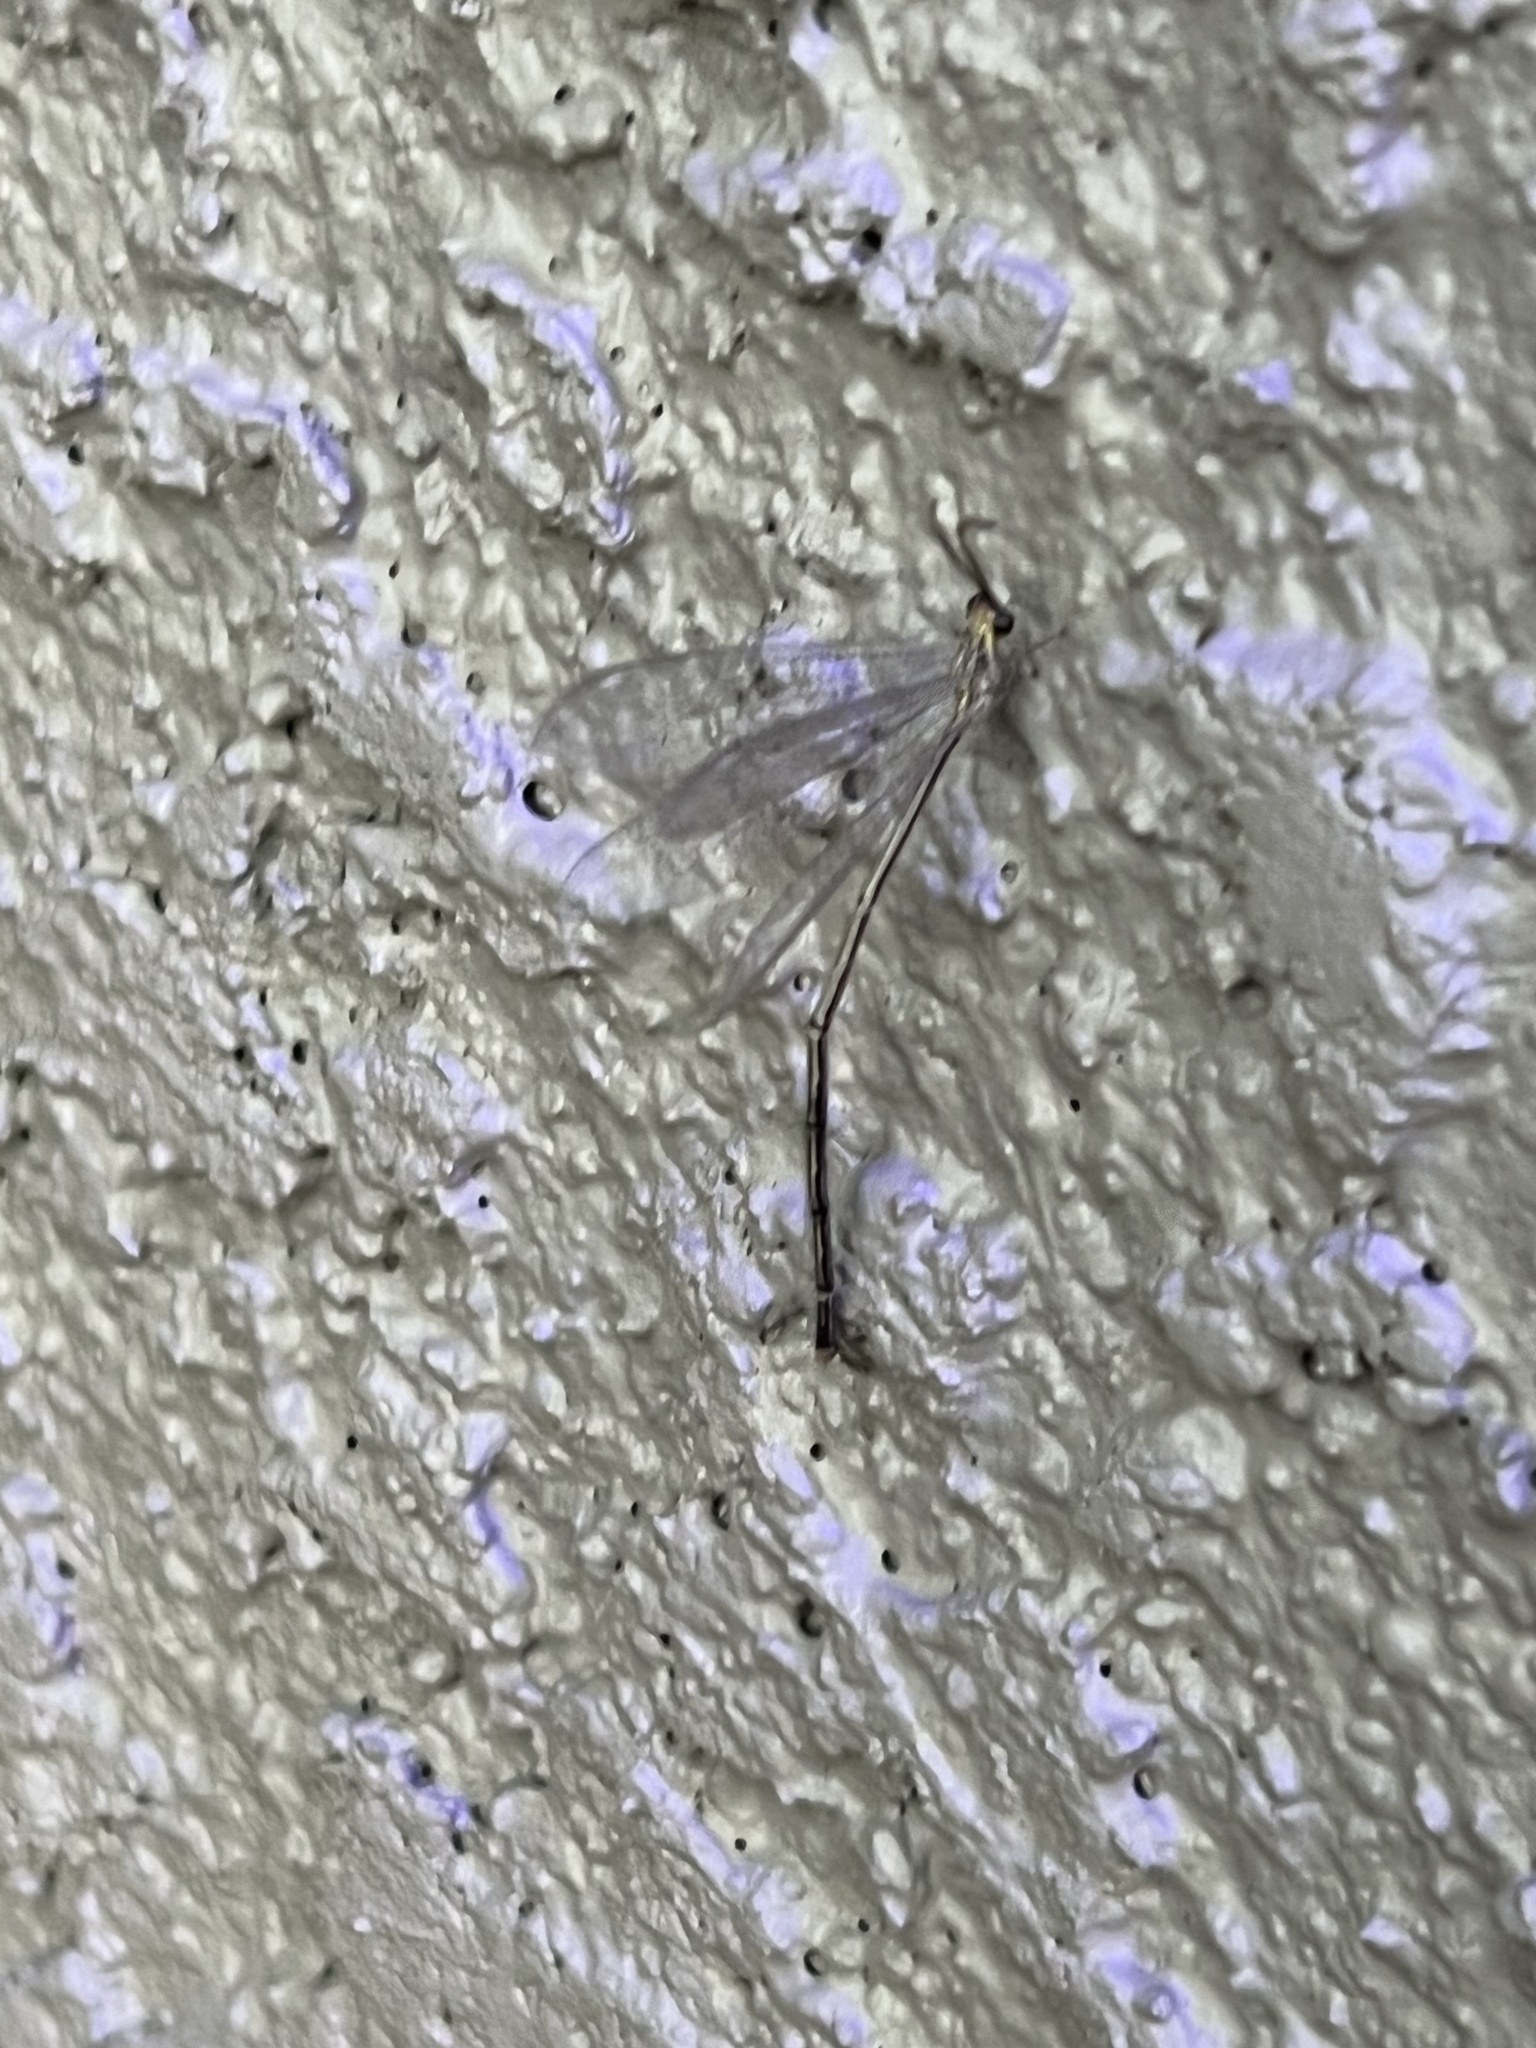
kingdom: Animalia
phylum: Arthropoda
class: Insecta
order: Neuroptera
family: Myrmeleontidae
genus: Brachynemurus
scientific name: Brachynemurus abdominalis
